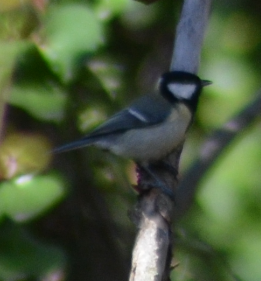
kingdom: Animalia
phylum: Chordata
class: Aves
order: Passeriformes
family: Paridae
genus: Parus
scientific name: Parus major
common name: Great tit
